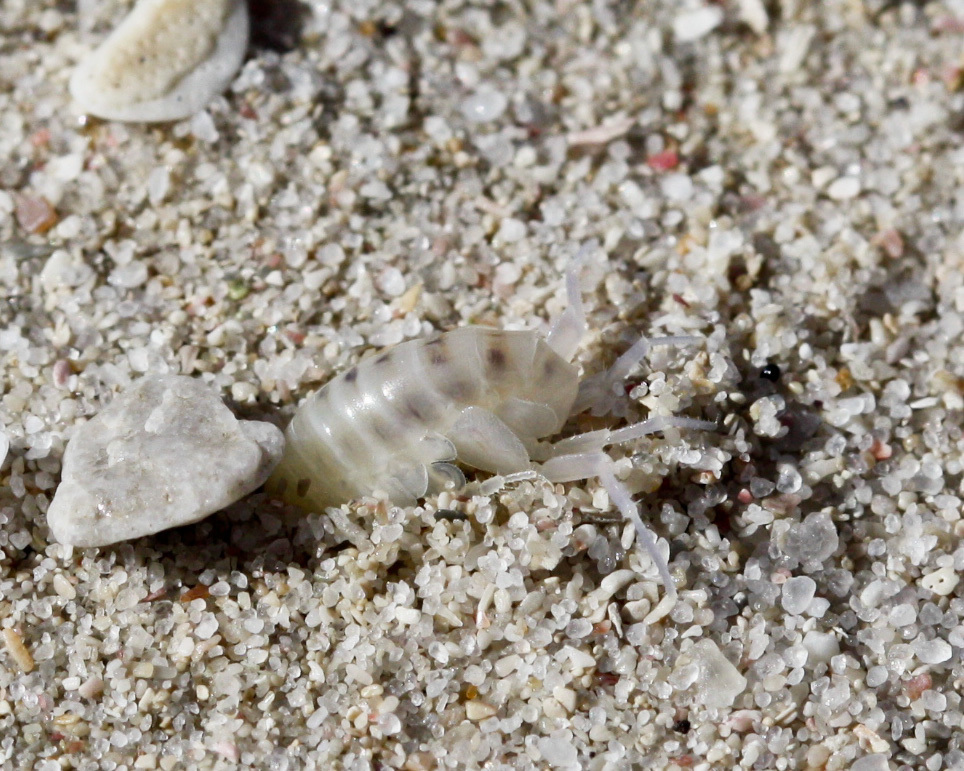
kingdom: Animalia
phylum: Arthropoda
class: Malacostraca
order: Amphipoda
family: Talitridae
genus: Africorchestia
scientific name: Africorchestia quadrispinosa
